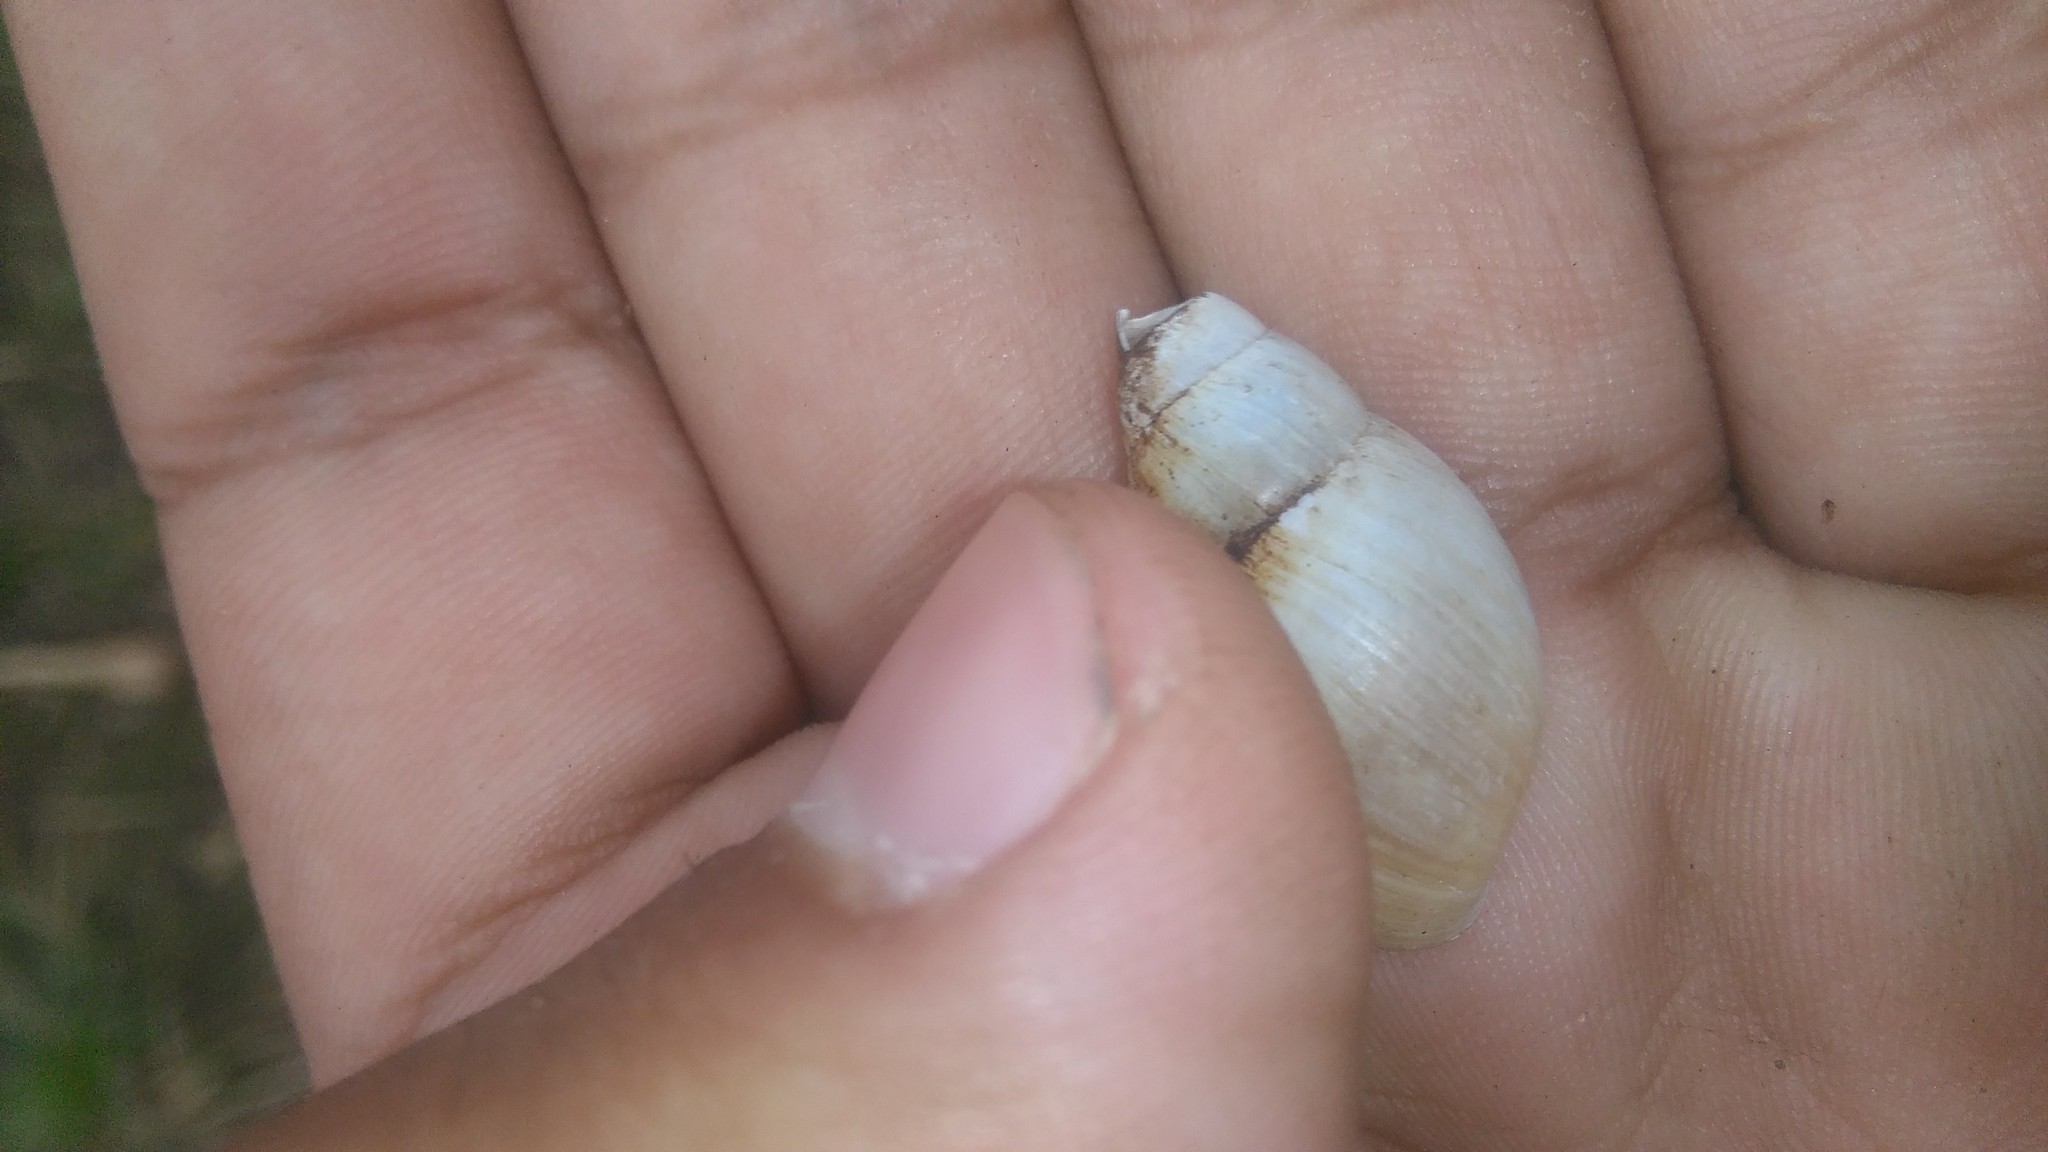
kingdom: Animalia
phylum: Mollusca
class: Gastropoda
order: Stylommatophora
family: Bulimulidae
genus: Bulimulus
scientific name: Bulimulus bonariensis
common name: Snail
